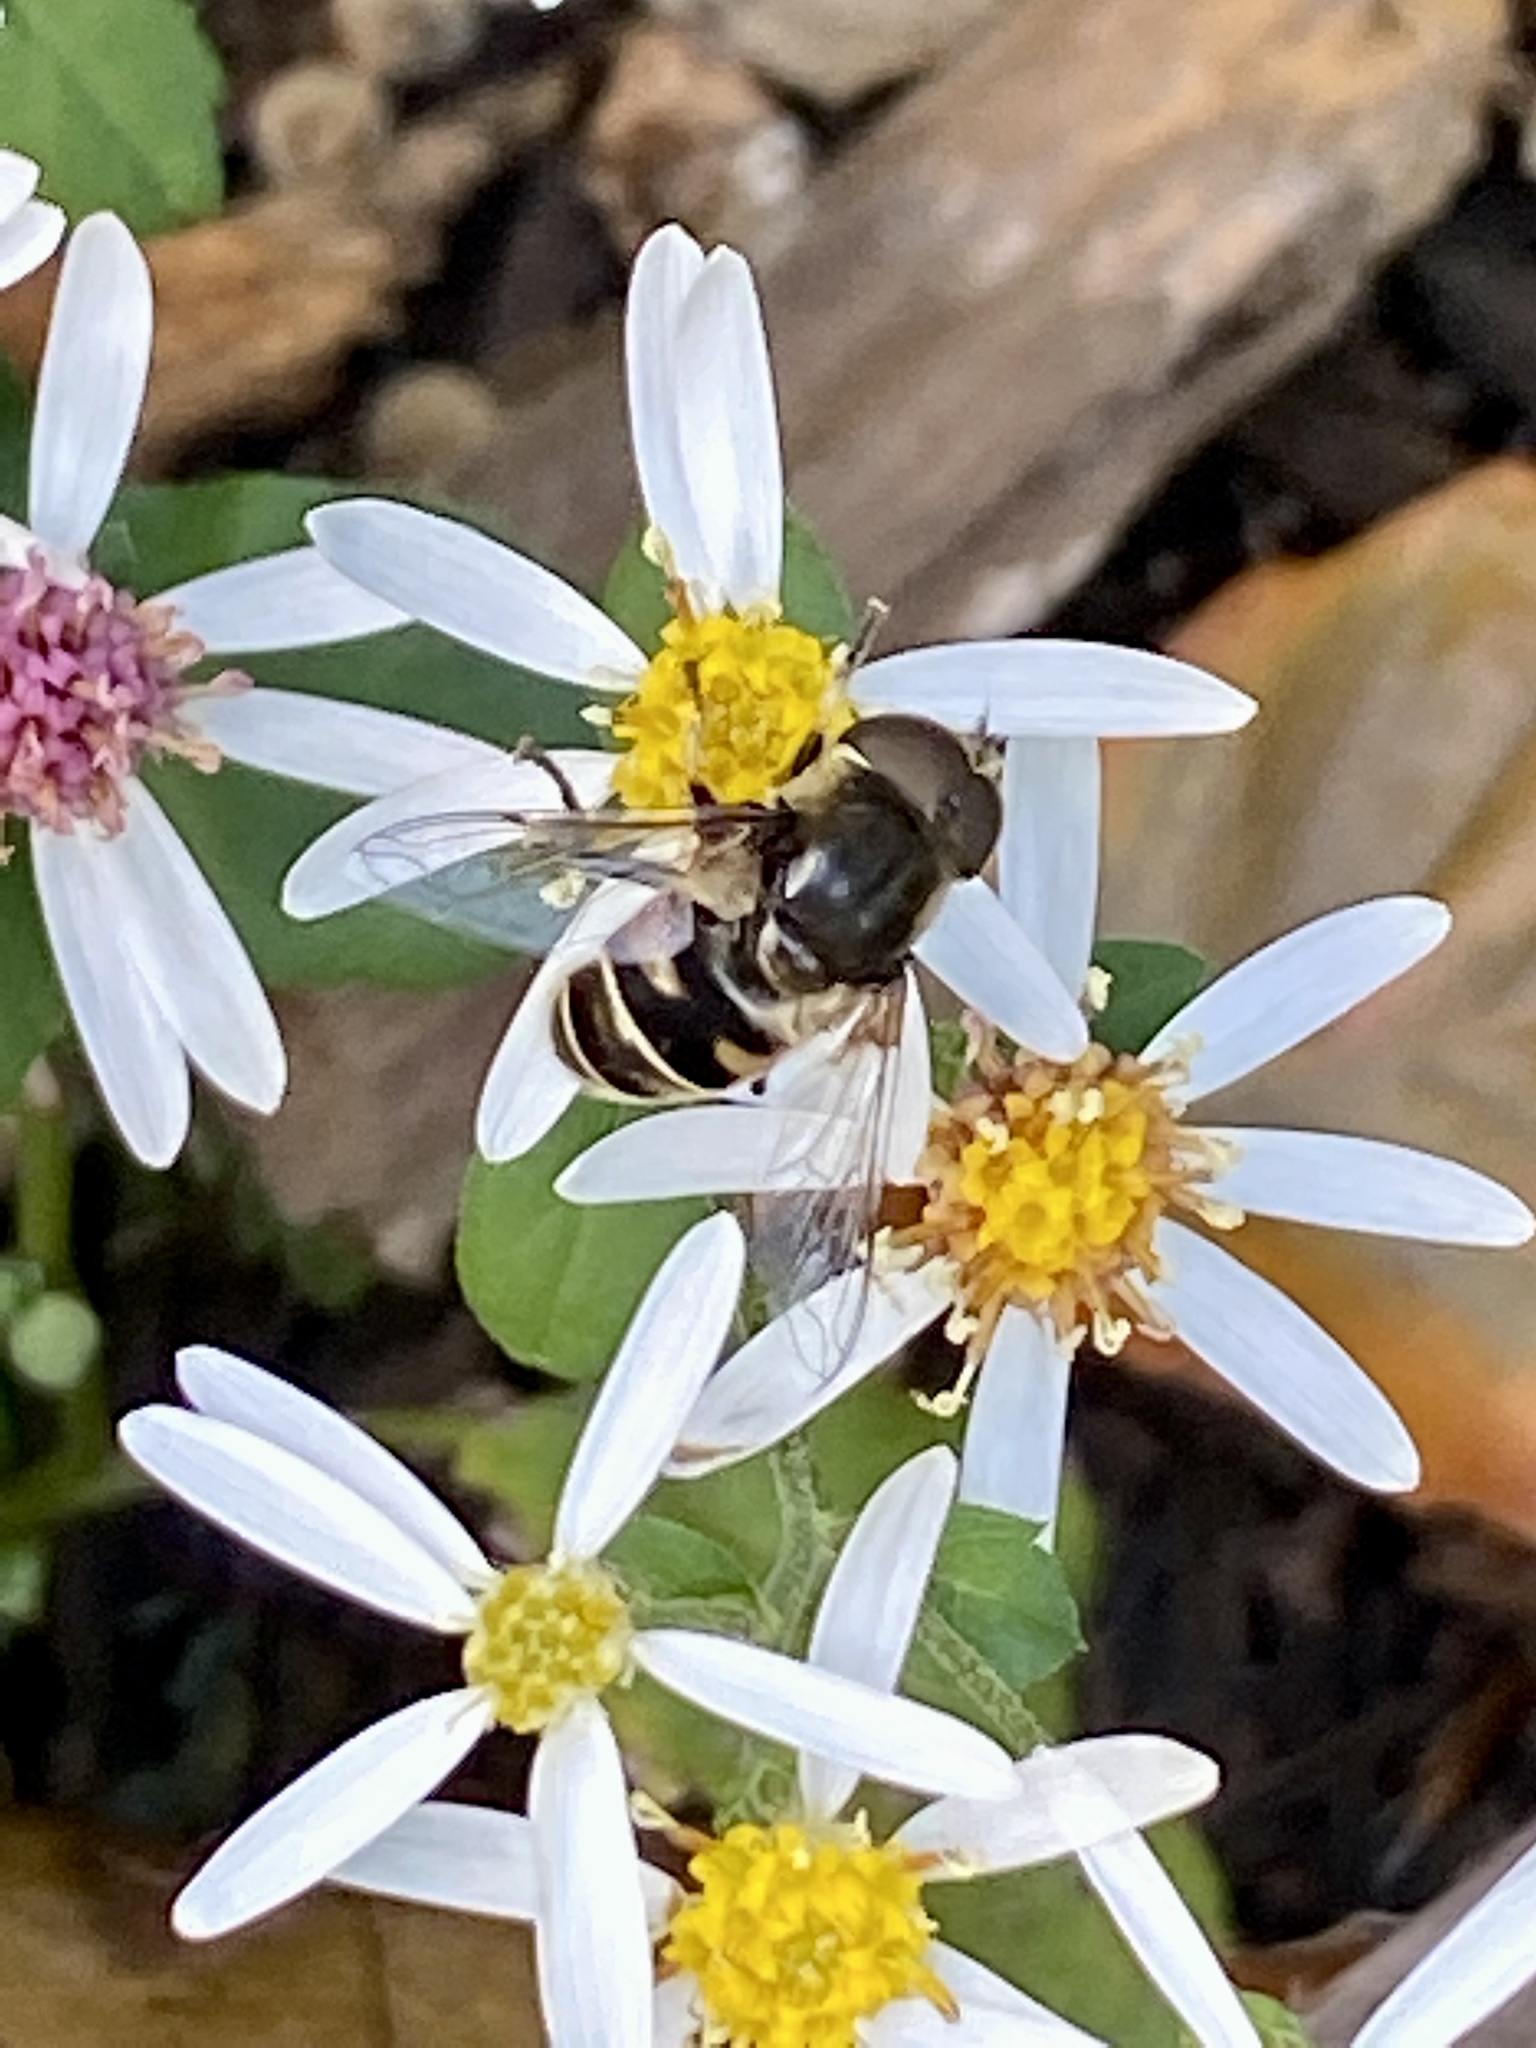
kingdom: Animalia
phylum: Arthropoda
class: Insecta
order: Diptera
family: Syrphidae
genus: Eristalis
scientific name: Eristalis dimidiata
